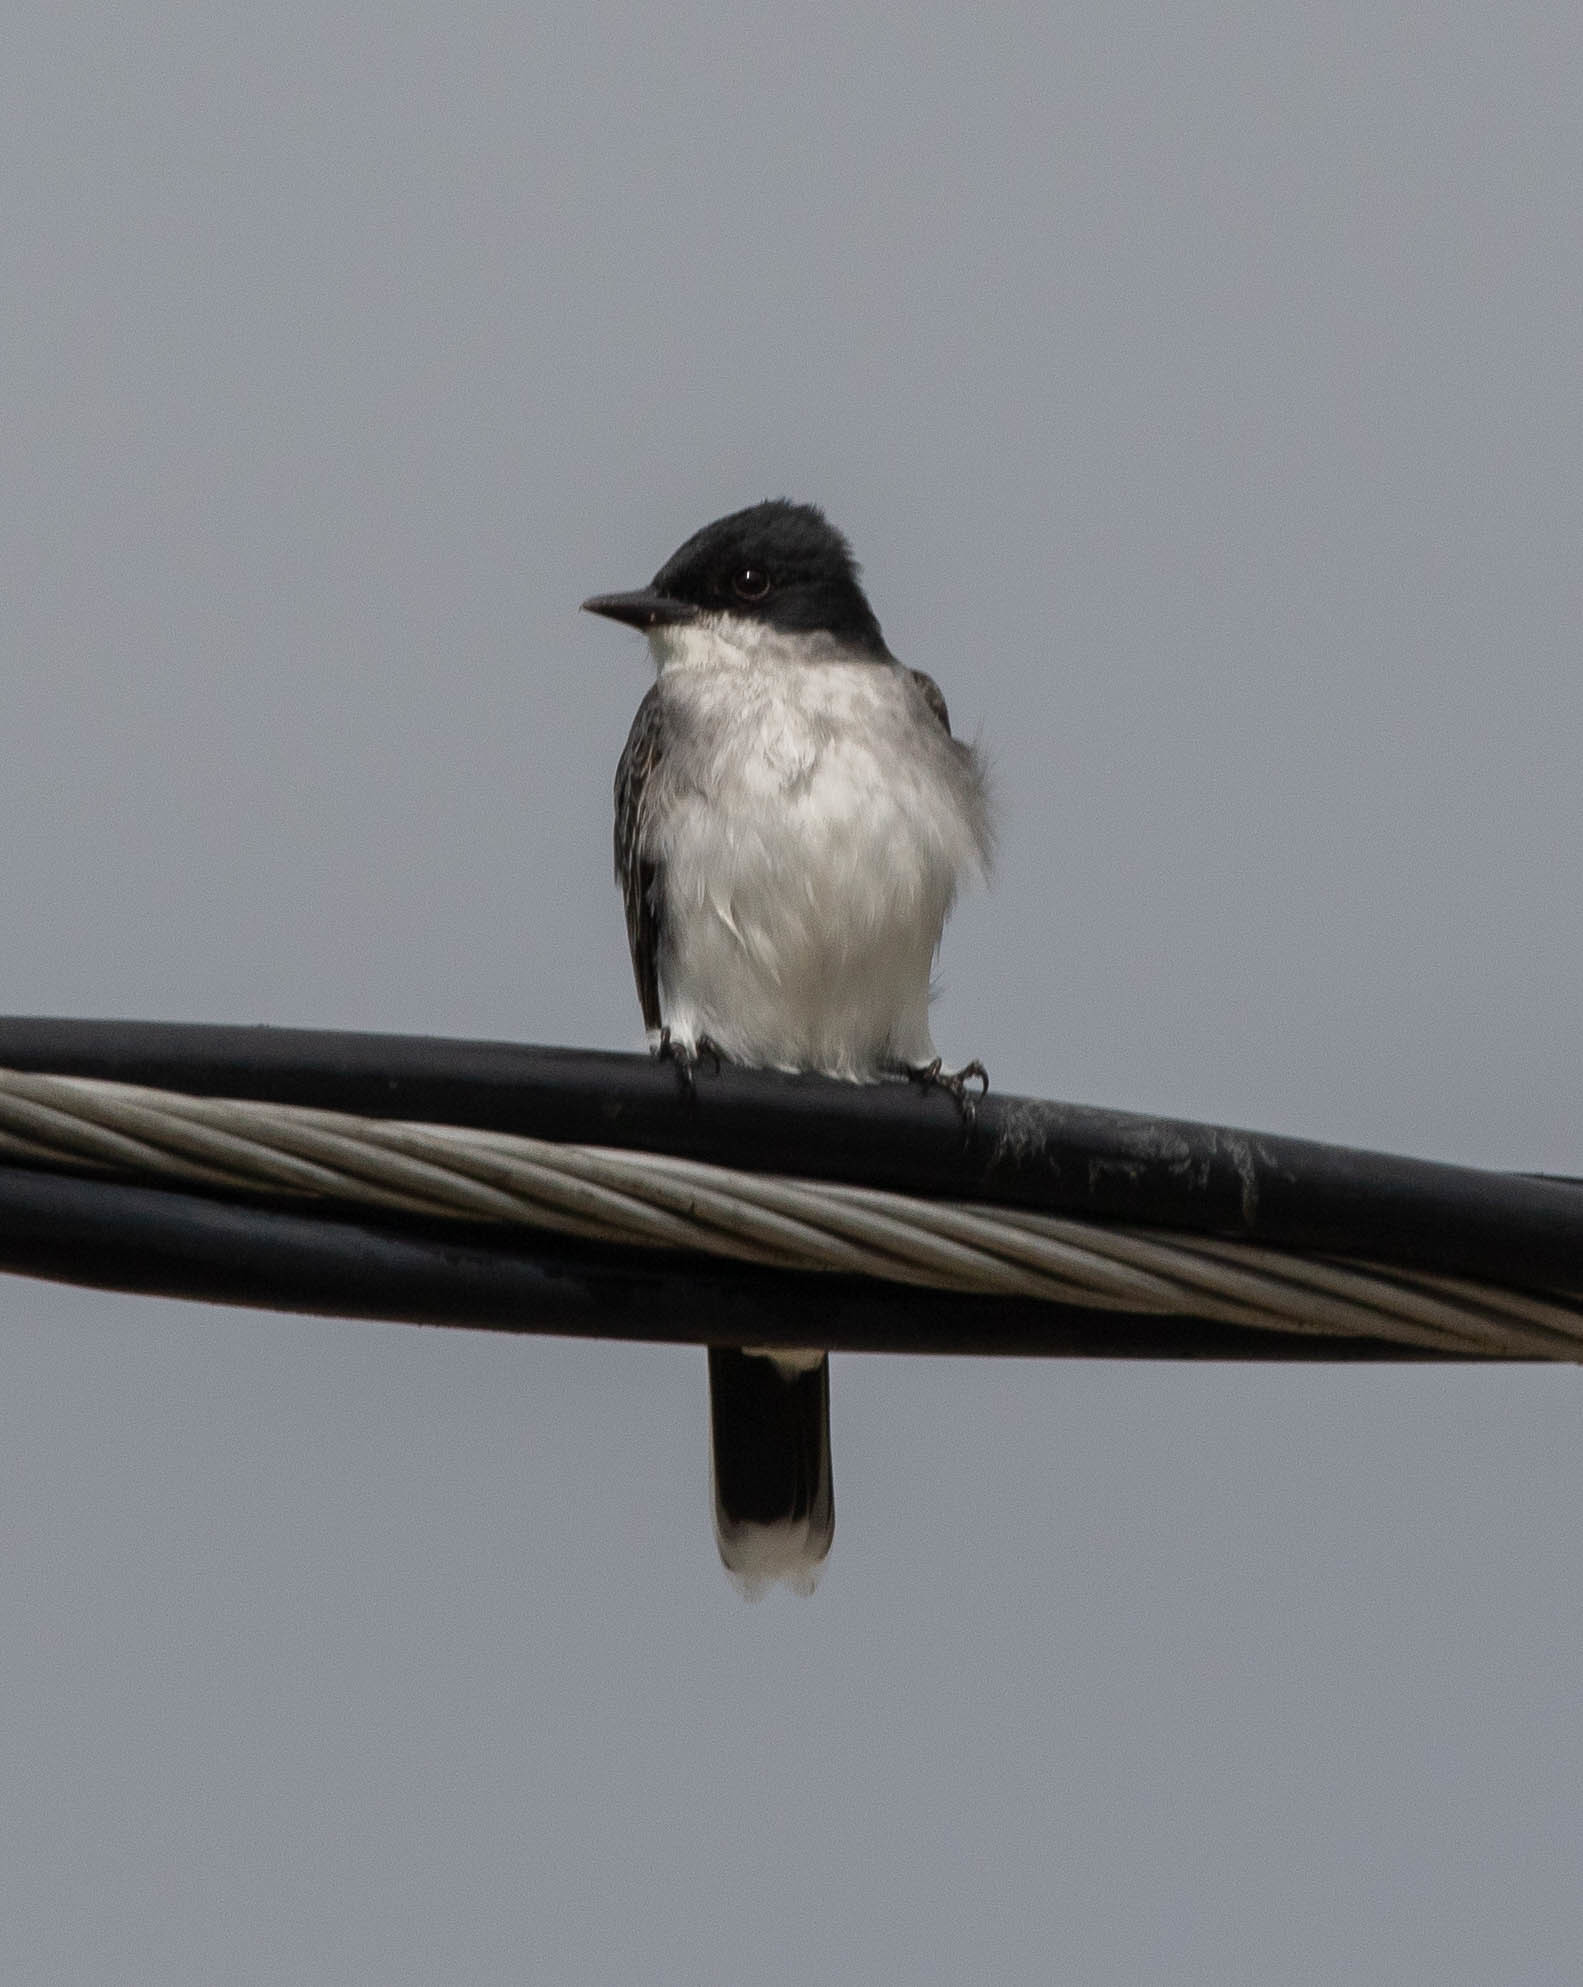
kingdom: Animalia
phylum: Chordata
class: Aves
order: Passeriformes
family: Tyrannidae
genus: Tyrannus
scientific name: Tyrannus tyrannus
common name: Eastern kingbird
